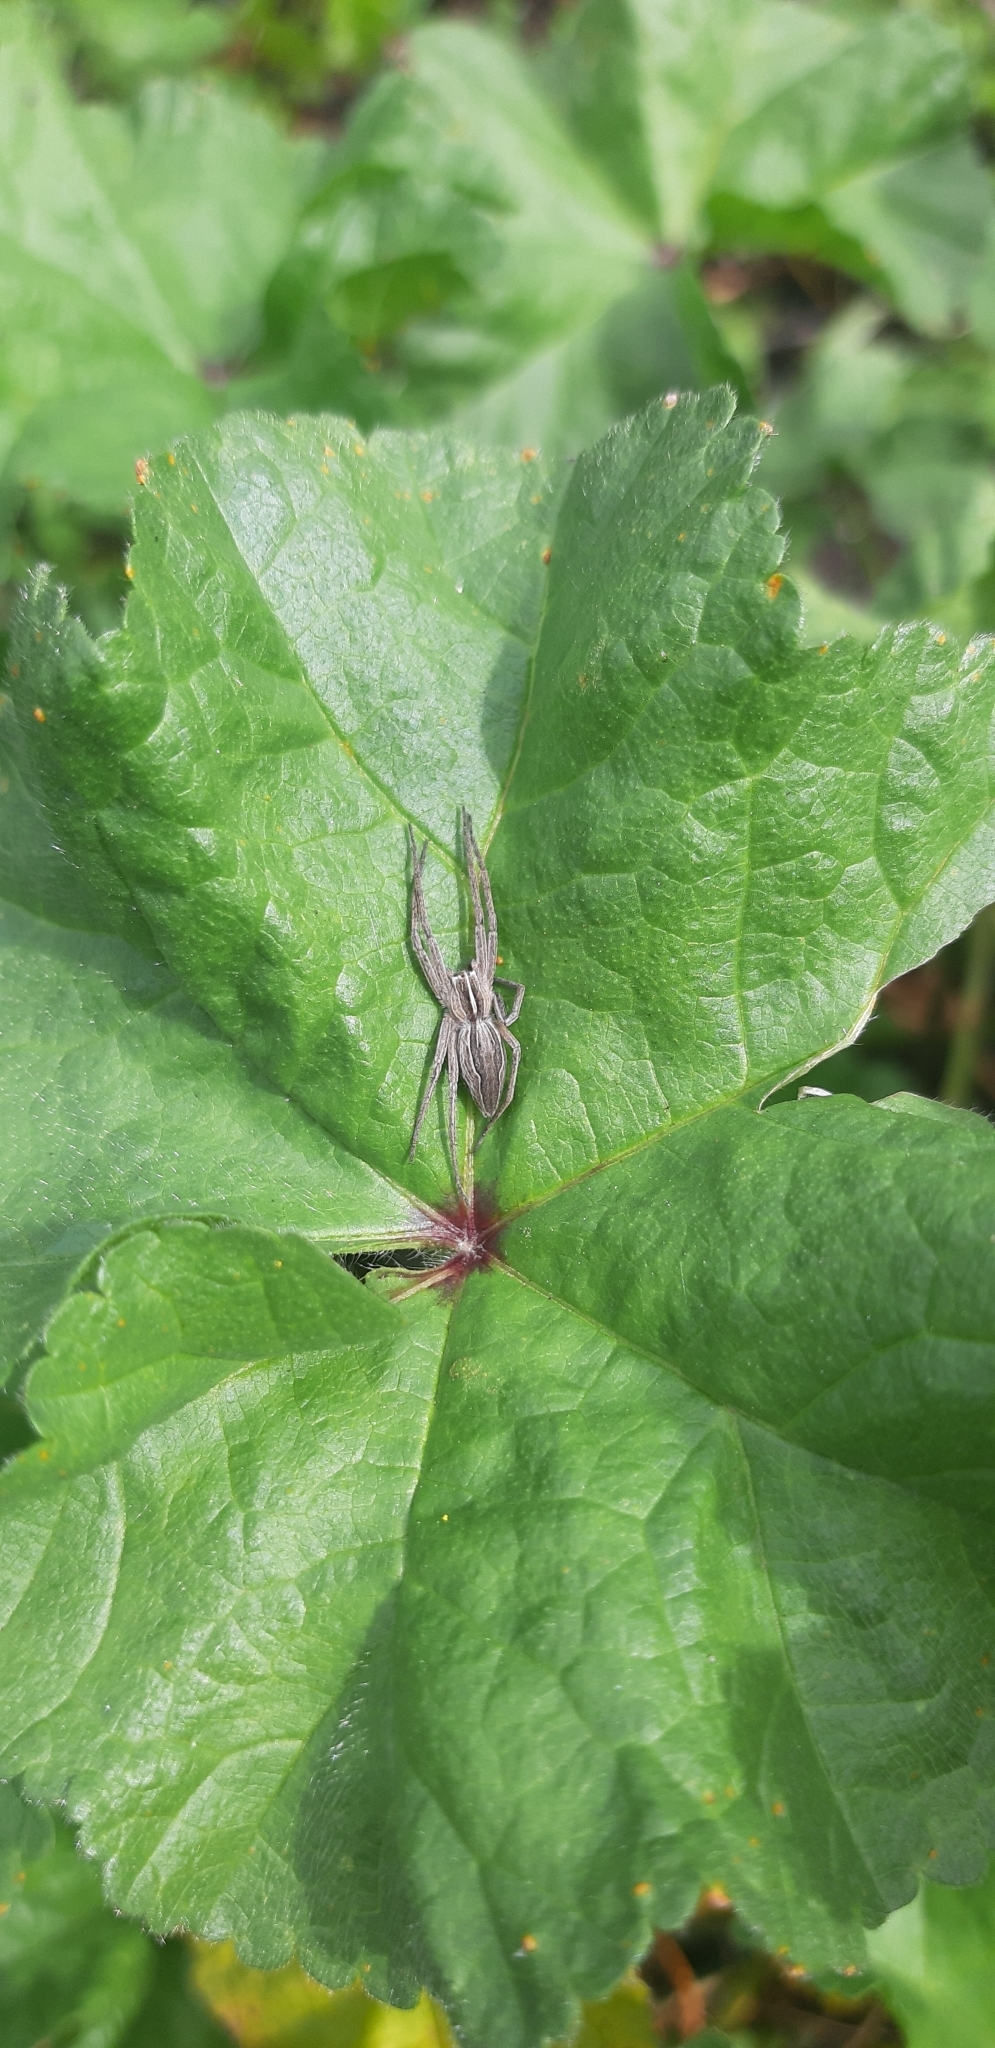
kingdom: Animalia
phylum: Arthropoda
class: Arachnida
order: Araneae
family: Pisauridae
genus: Pisaura
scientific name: Pisaura
